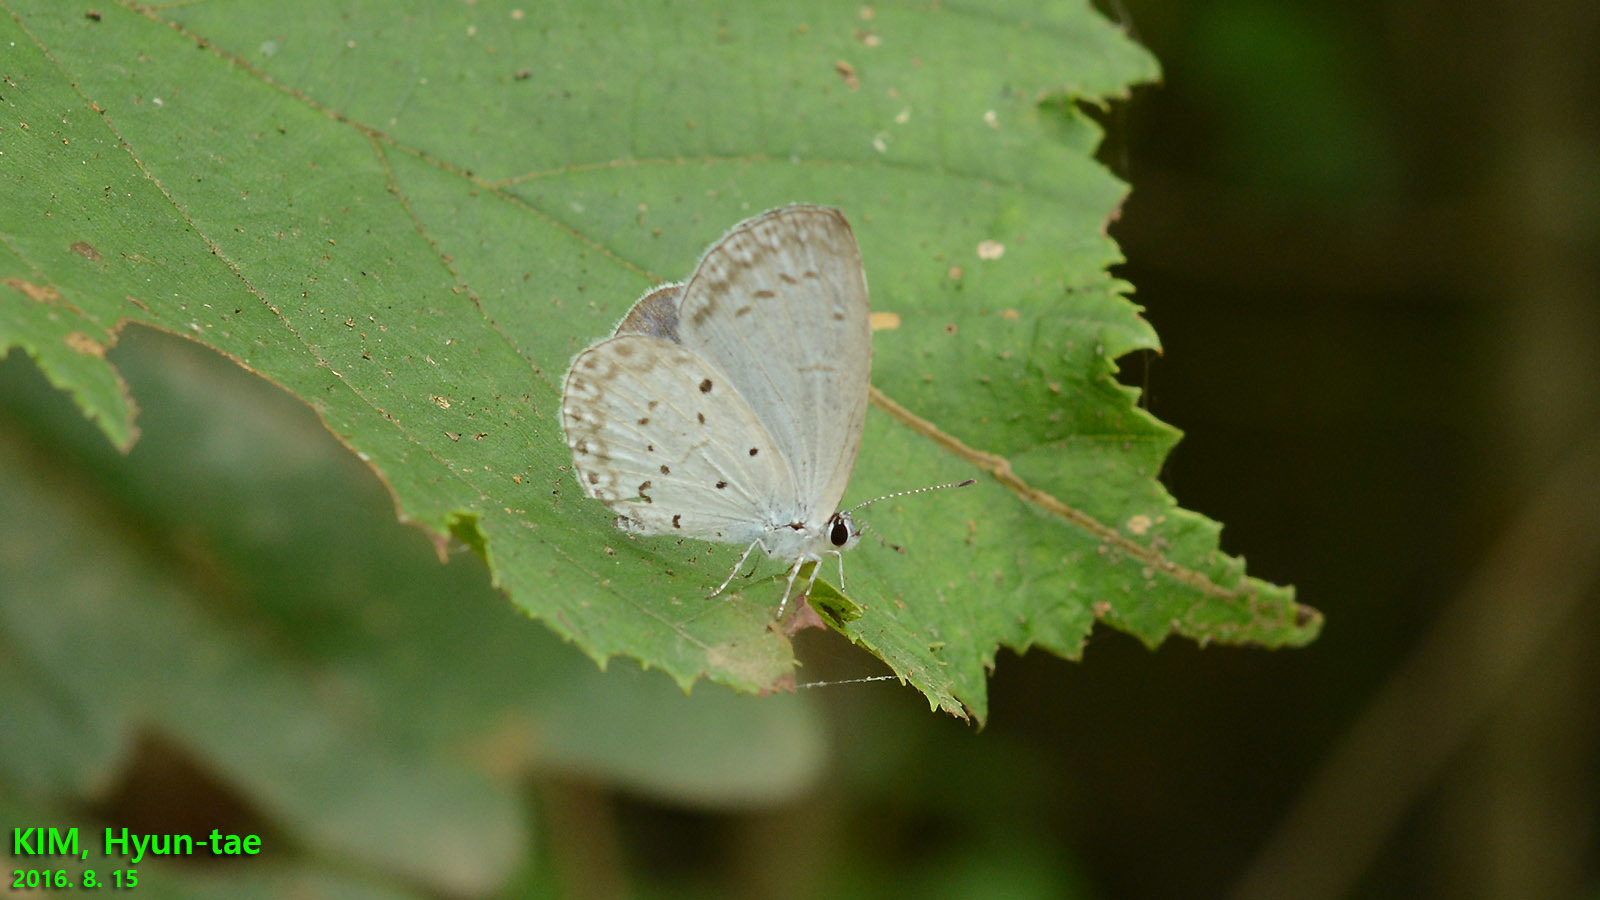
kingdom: Animalia
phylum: Arthropoda
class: Insecta
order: Lepidoptera
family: Lycaenidae
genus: Celastrina
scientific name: Celastrina argiolus
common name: Holly blue
